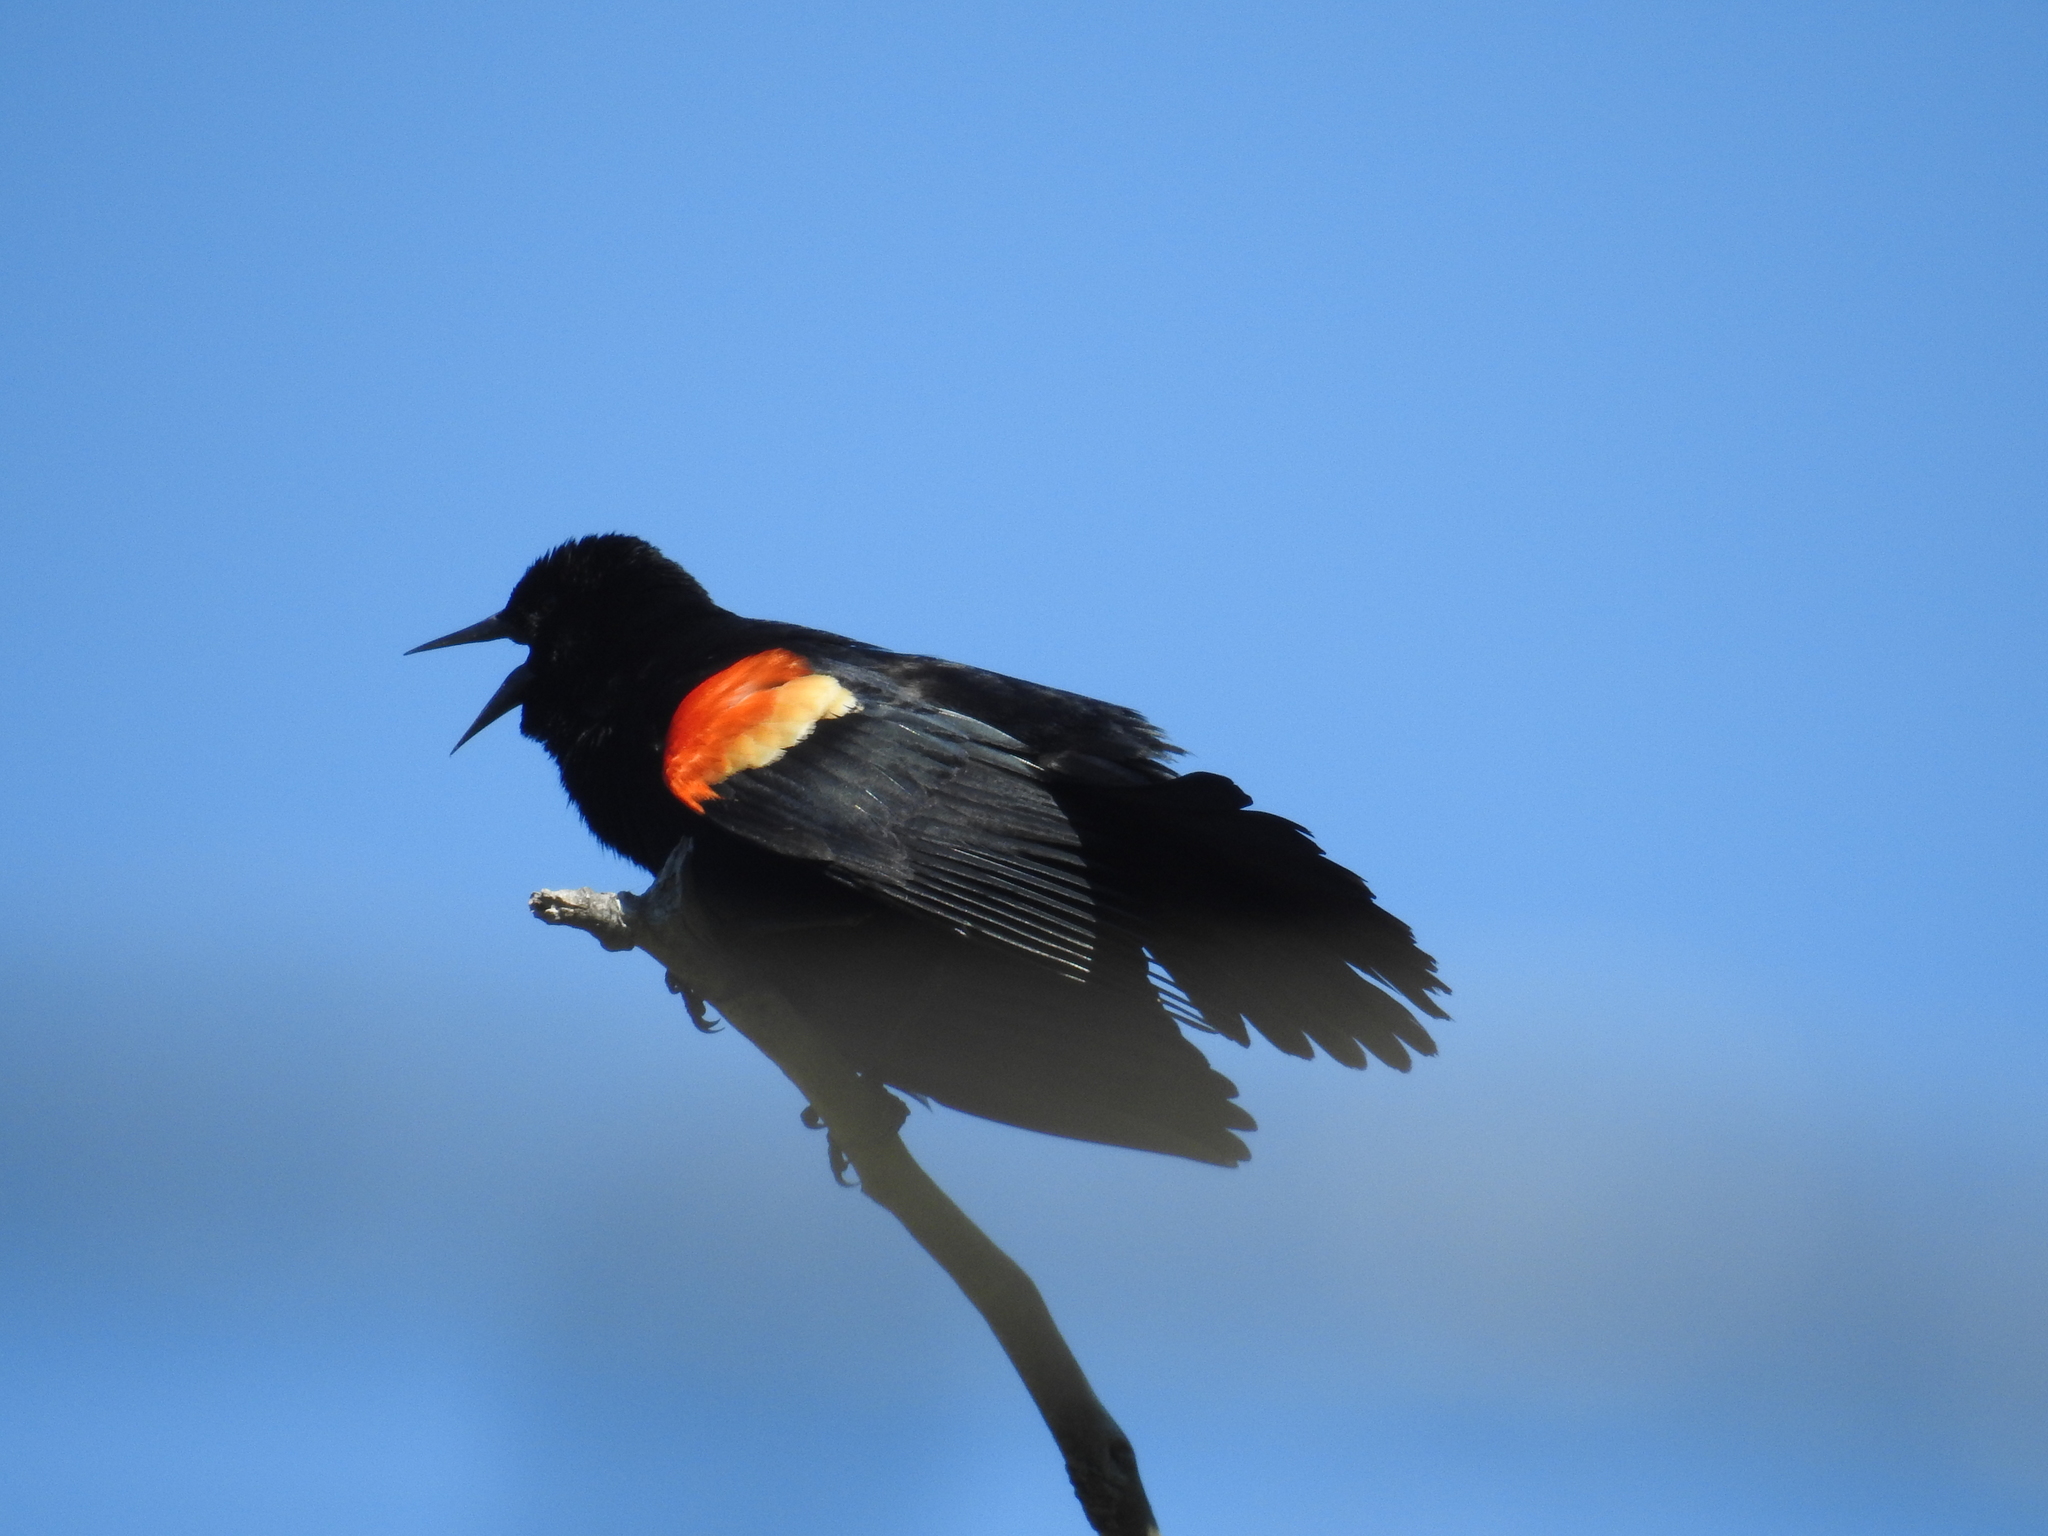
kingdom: Animalia
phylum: Chordata
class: Aves
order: Passeriformes
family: Icteridae
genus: Agelaius
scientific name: Agelaius phoeniceus
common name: Red-winged blackbird
